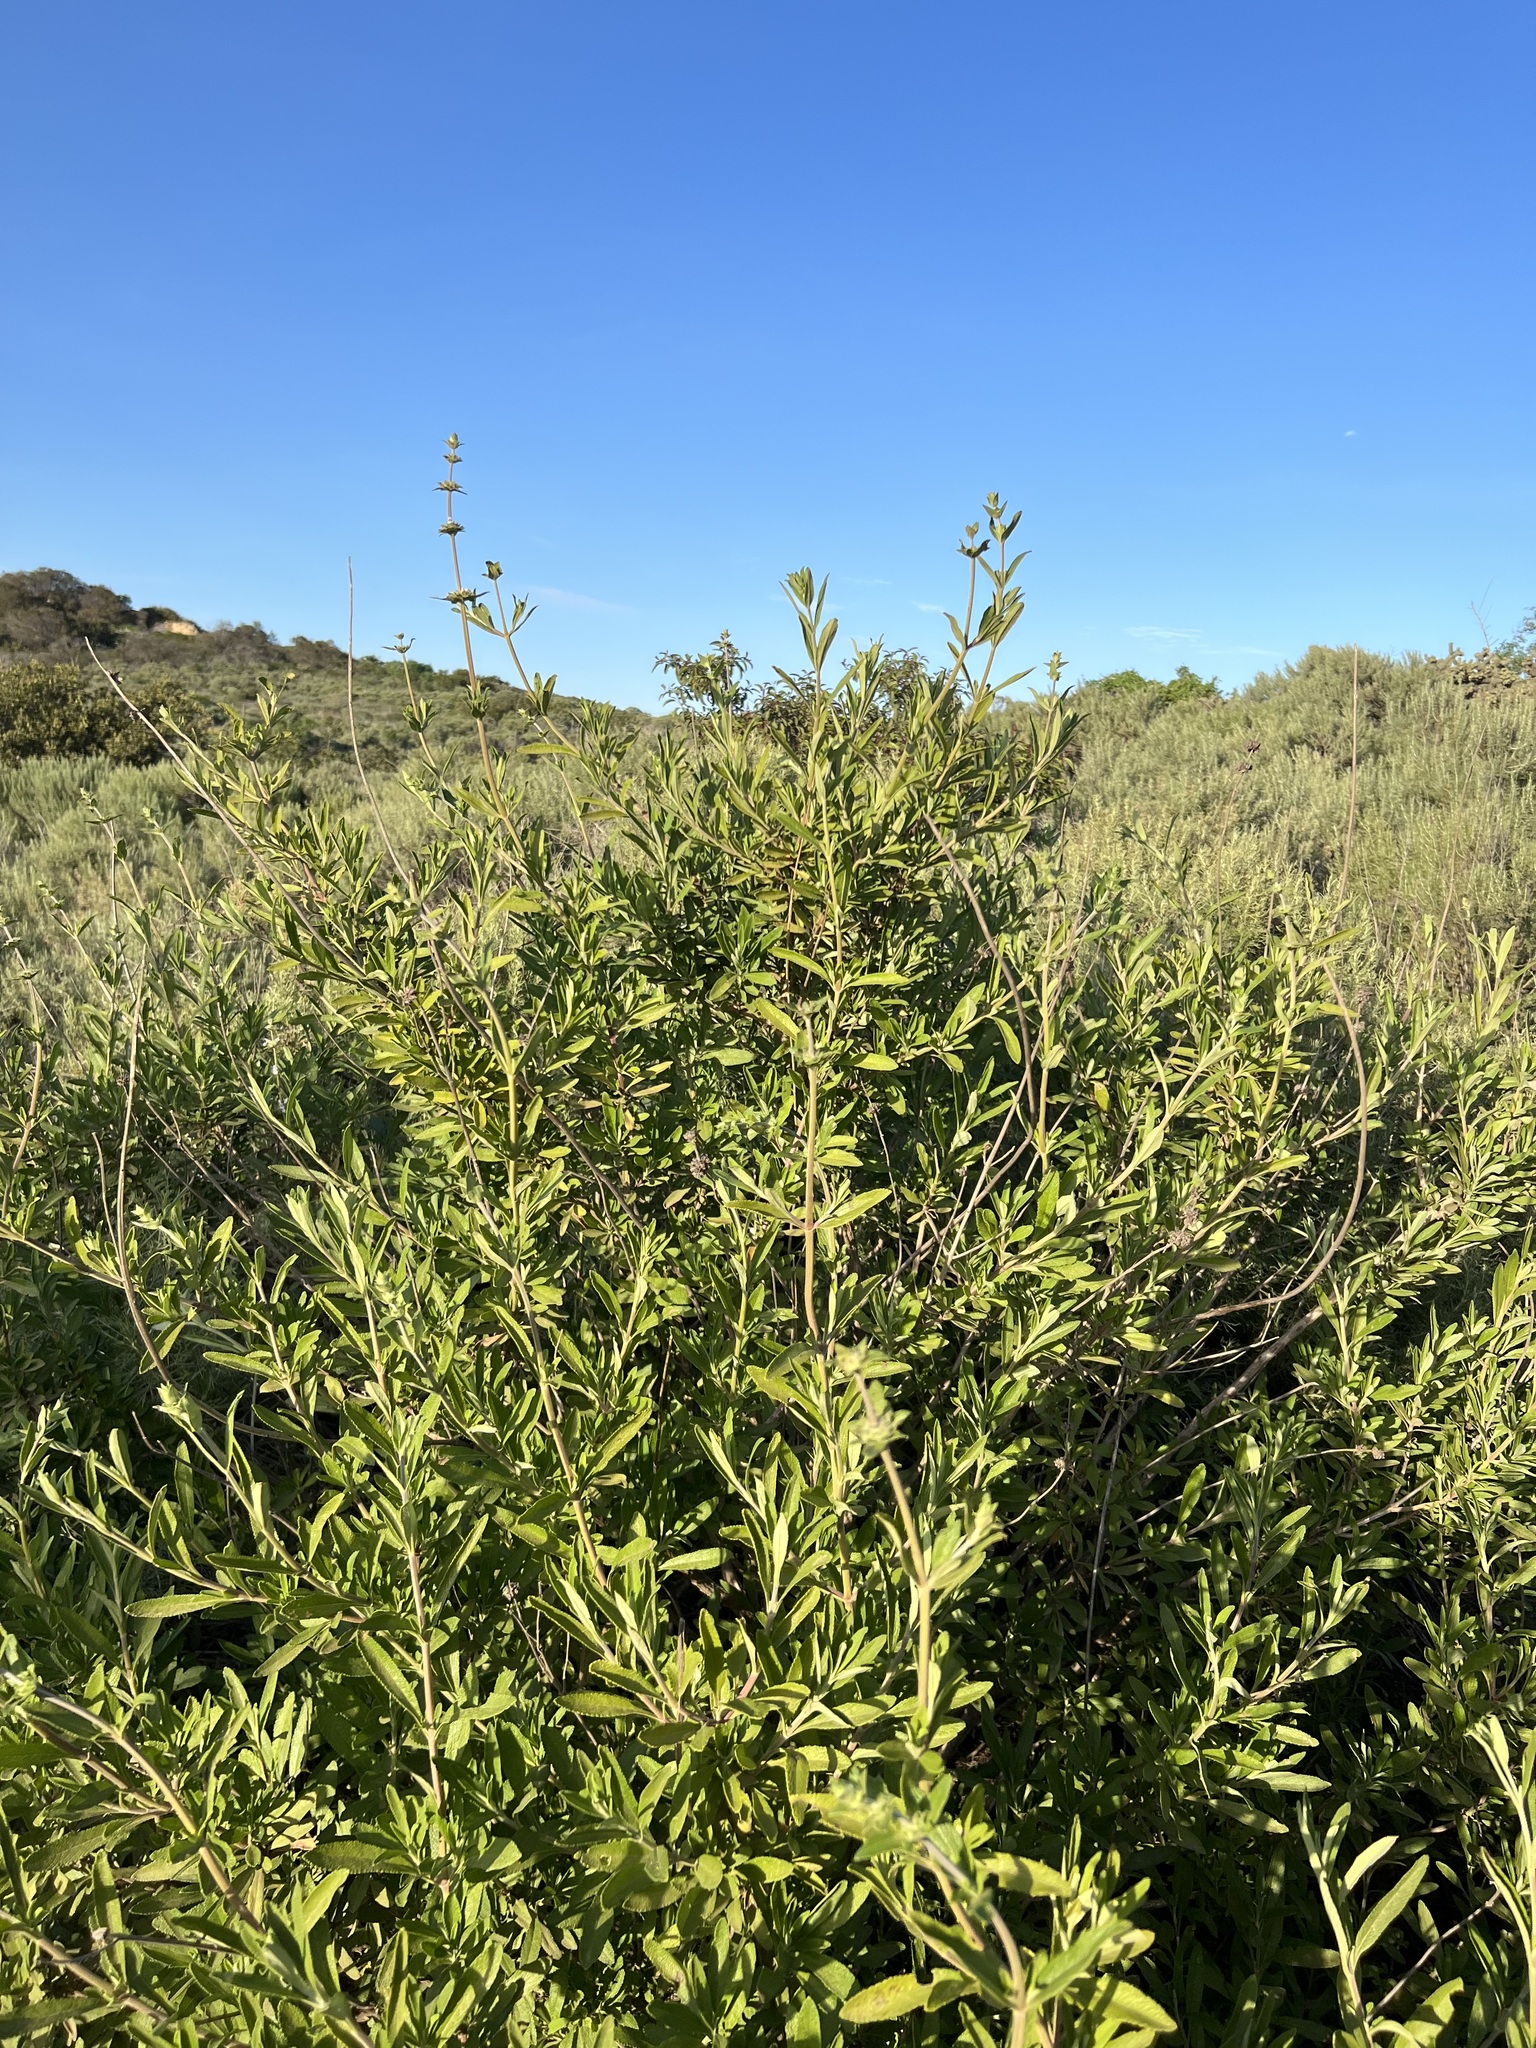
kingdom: Plantae
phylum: Tracheophyta
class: Magnoliopsida
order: Lamiales
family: Lamiaceae
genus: Salvia
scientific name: Salvia mellifera
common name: Black sage
